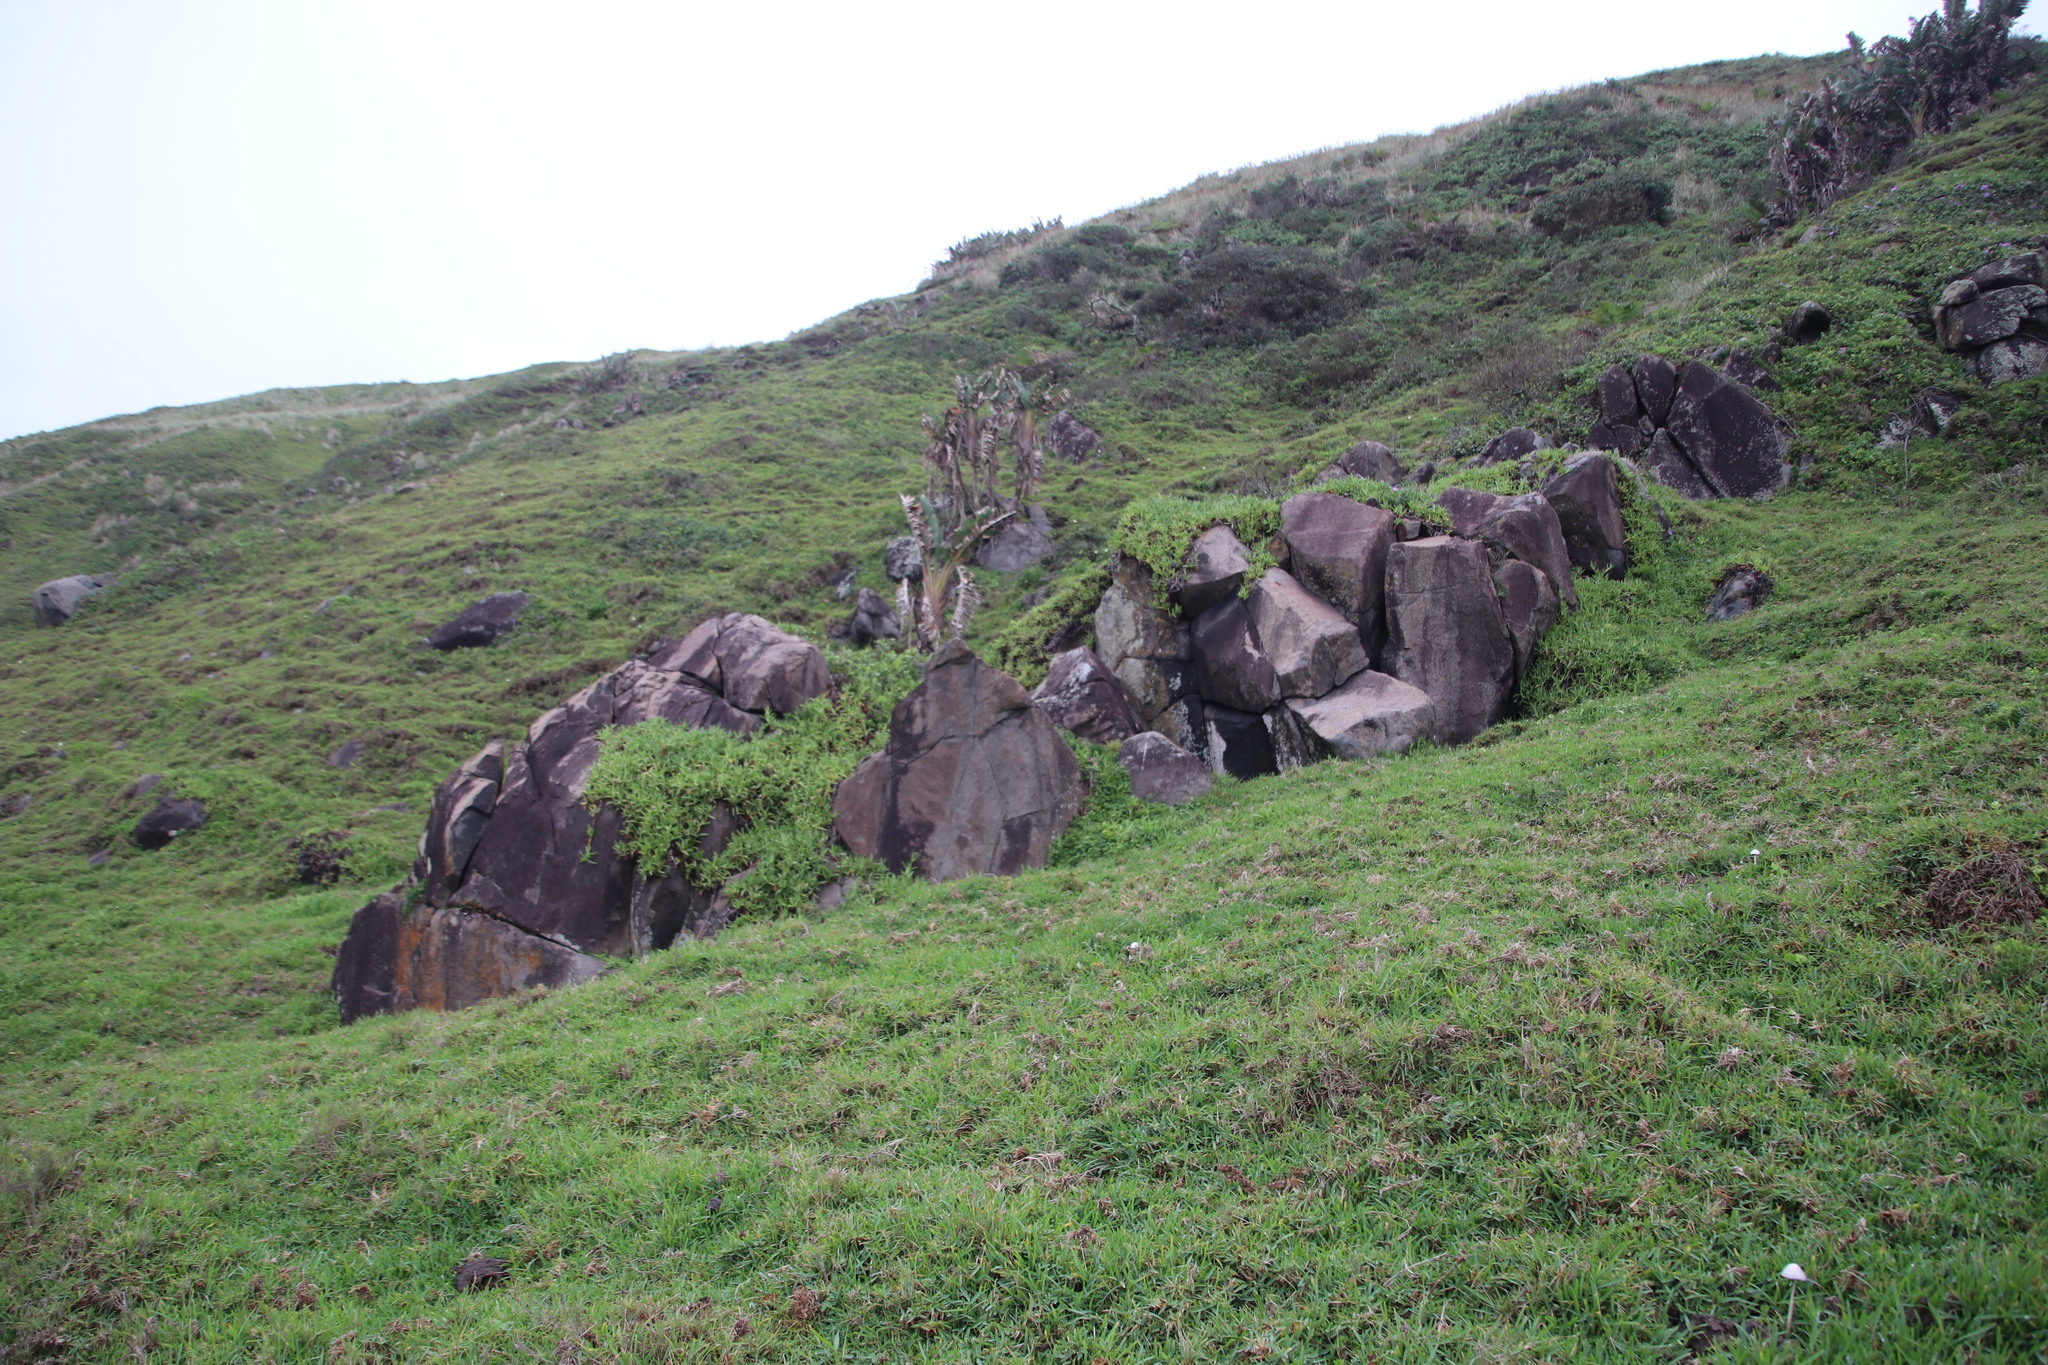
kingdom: Plantae
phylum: Tracheophyta
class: Liliopsida
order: Poales
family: Poaceae
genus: Stenotaphrum
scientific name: Stenotaphrum secundatum
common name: St. augustine grass
